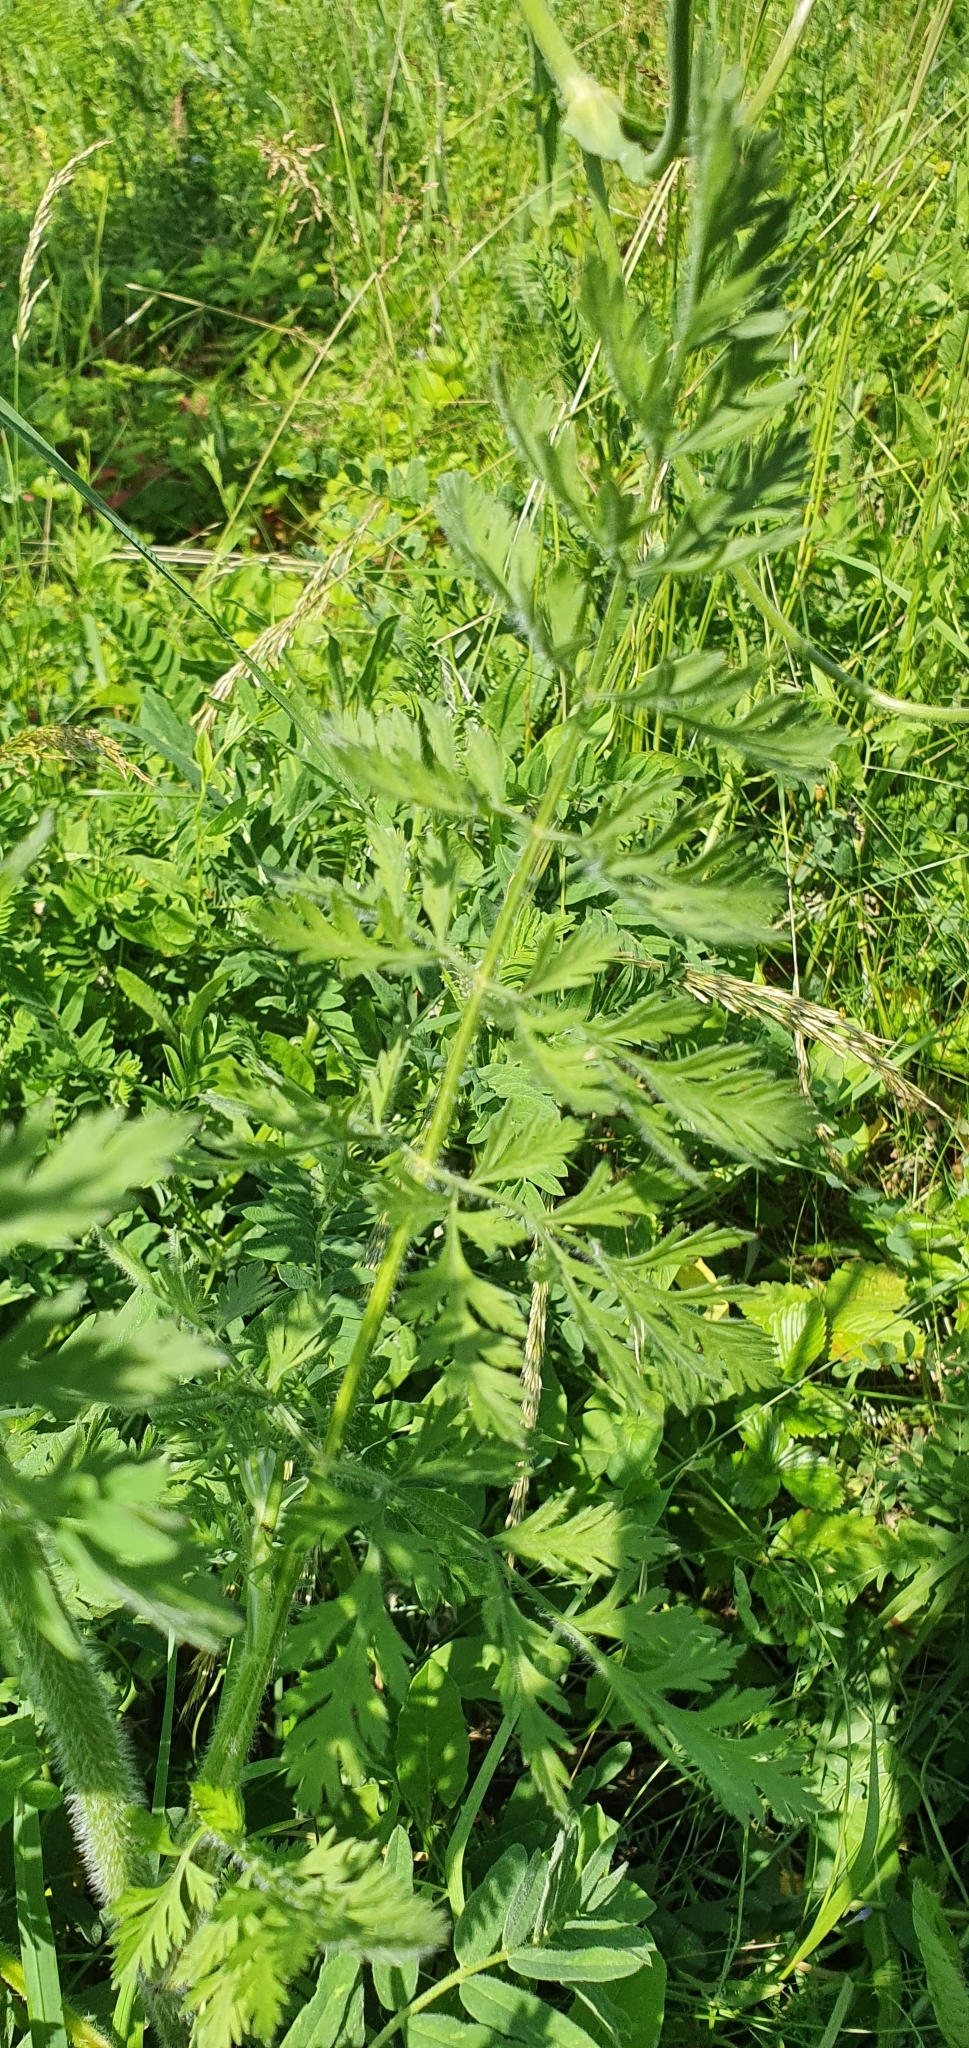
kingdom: Plantae
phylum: Tracheophyta
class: Magnoliopsida
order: Apiales
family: Apiaceae
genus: Daucus
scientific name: Daucus carota
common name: Wild carrot
